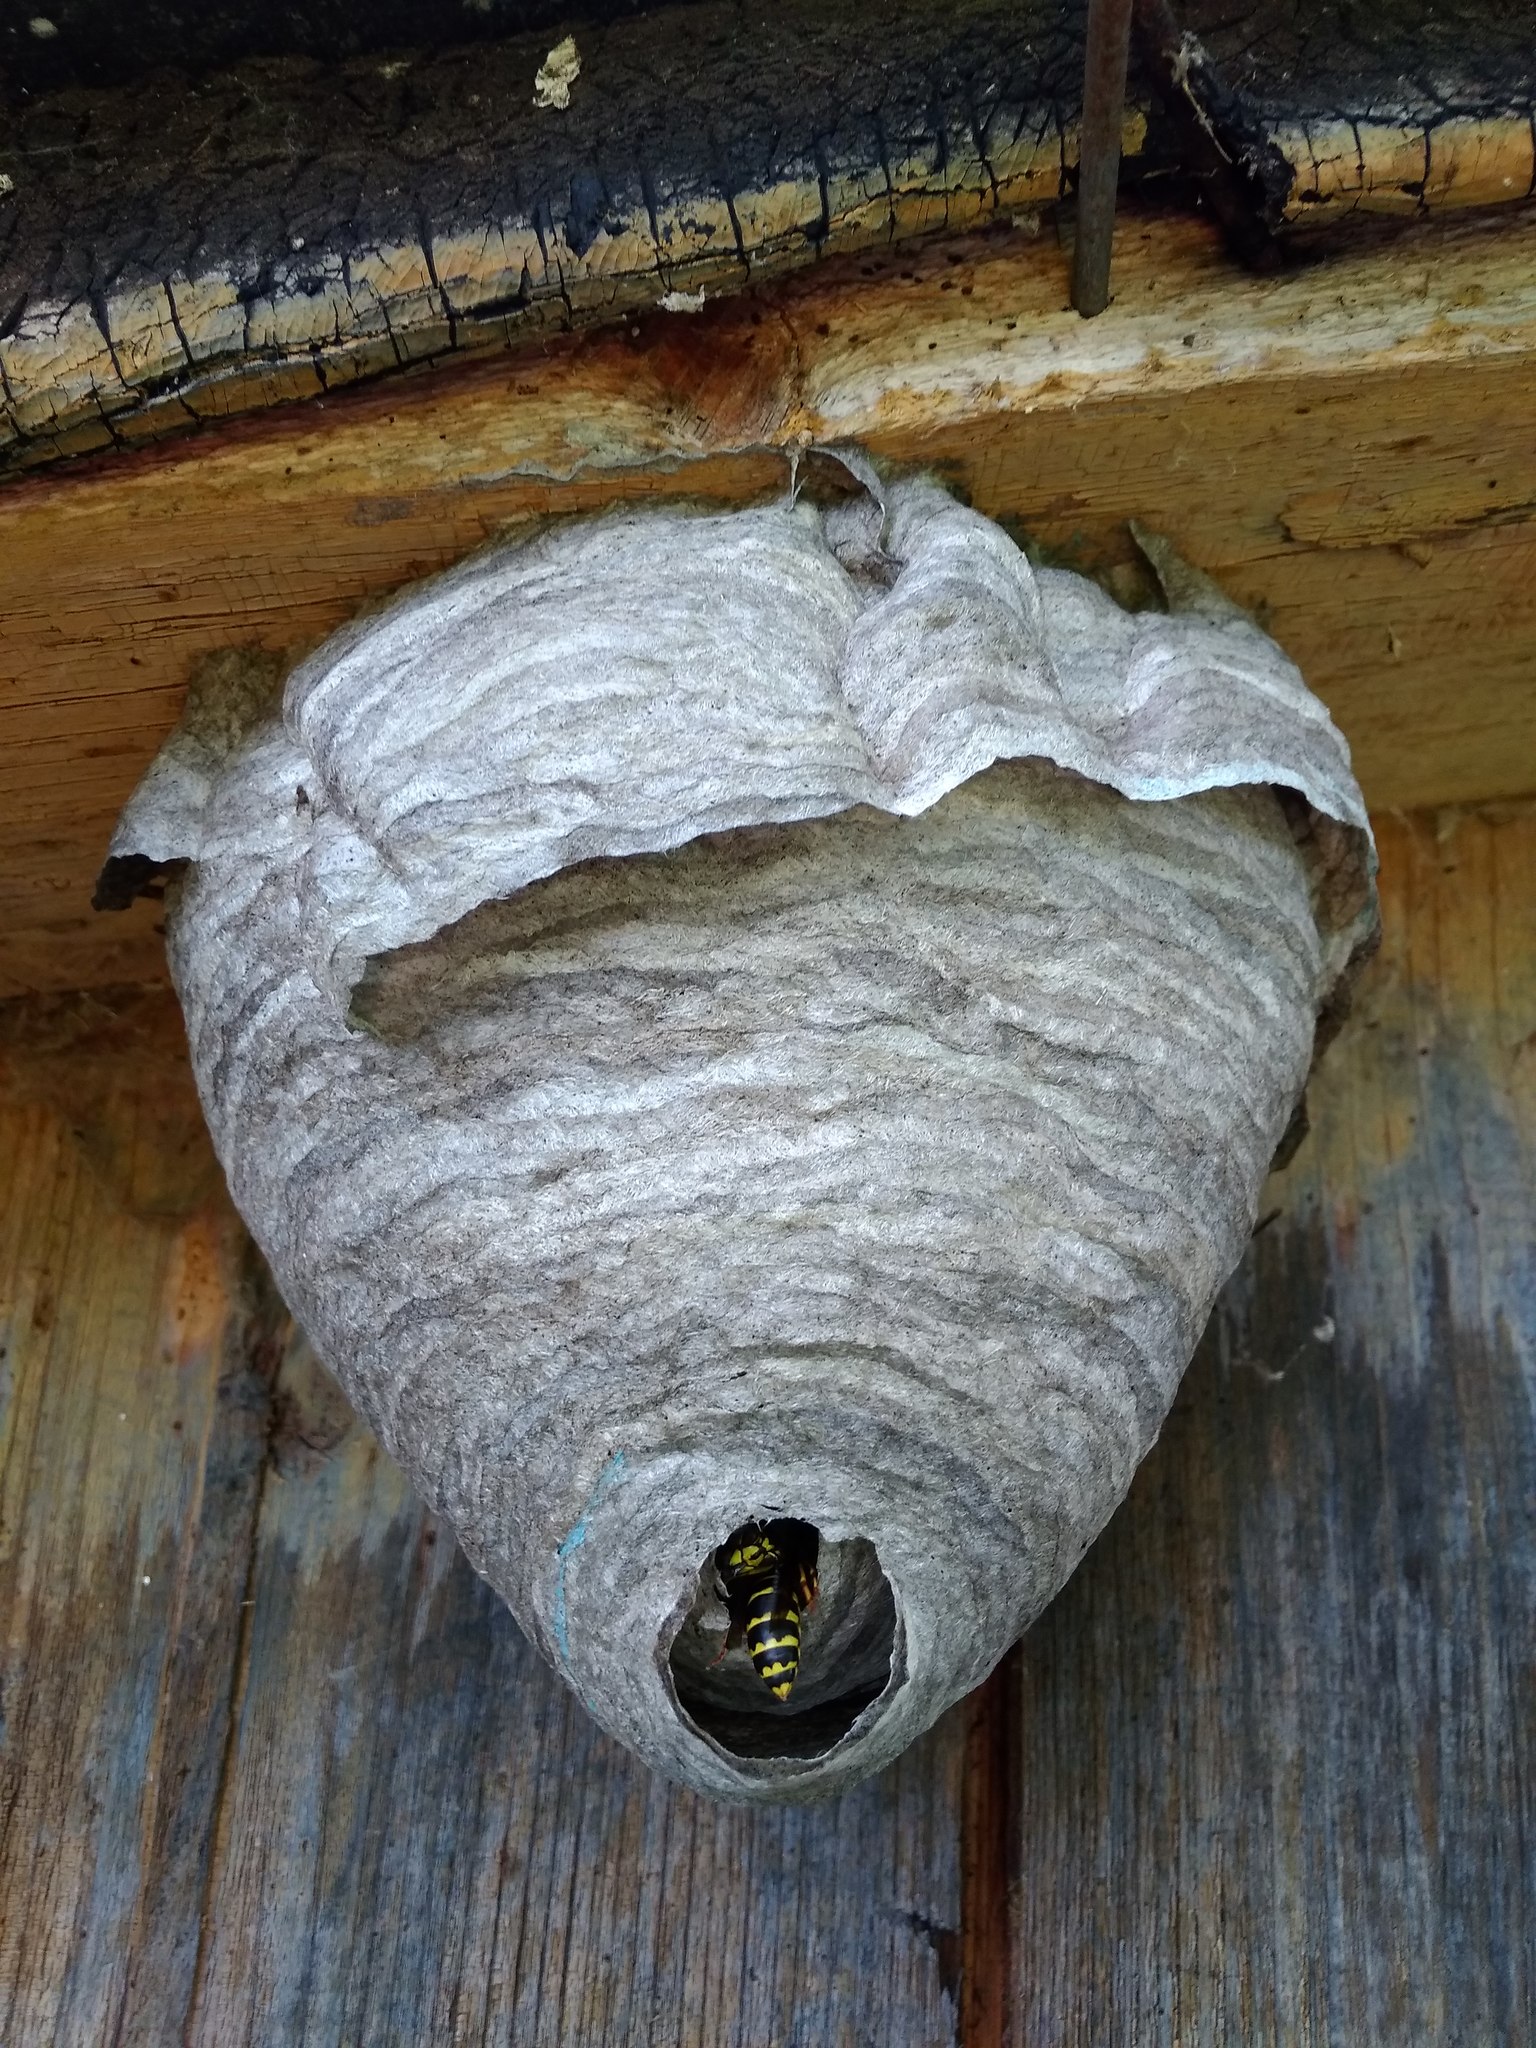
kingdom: Animalia
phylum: Arthropoda
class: Insecta
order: Hymenoptera
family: Vespidae
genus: Dolichovespula
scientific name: Dolichovespula media
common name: Median wasp
